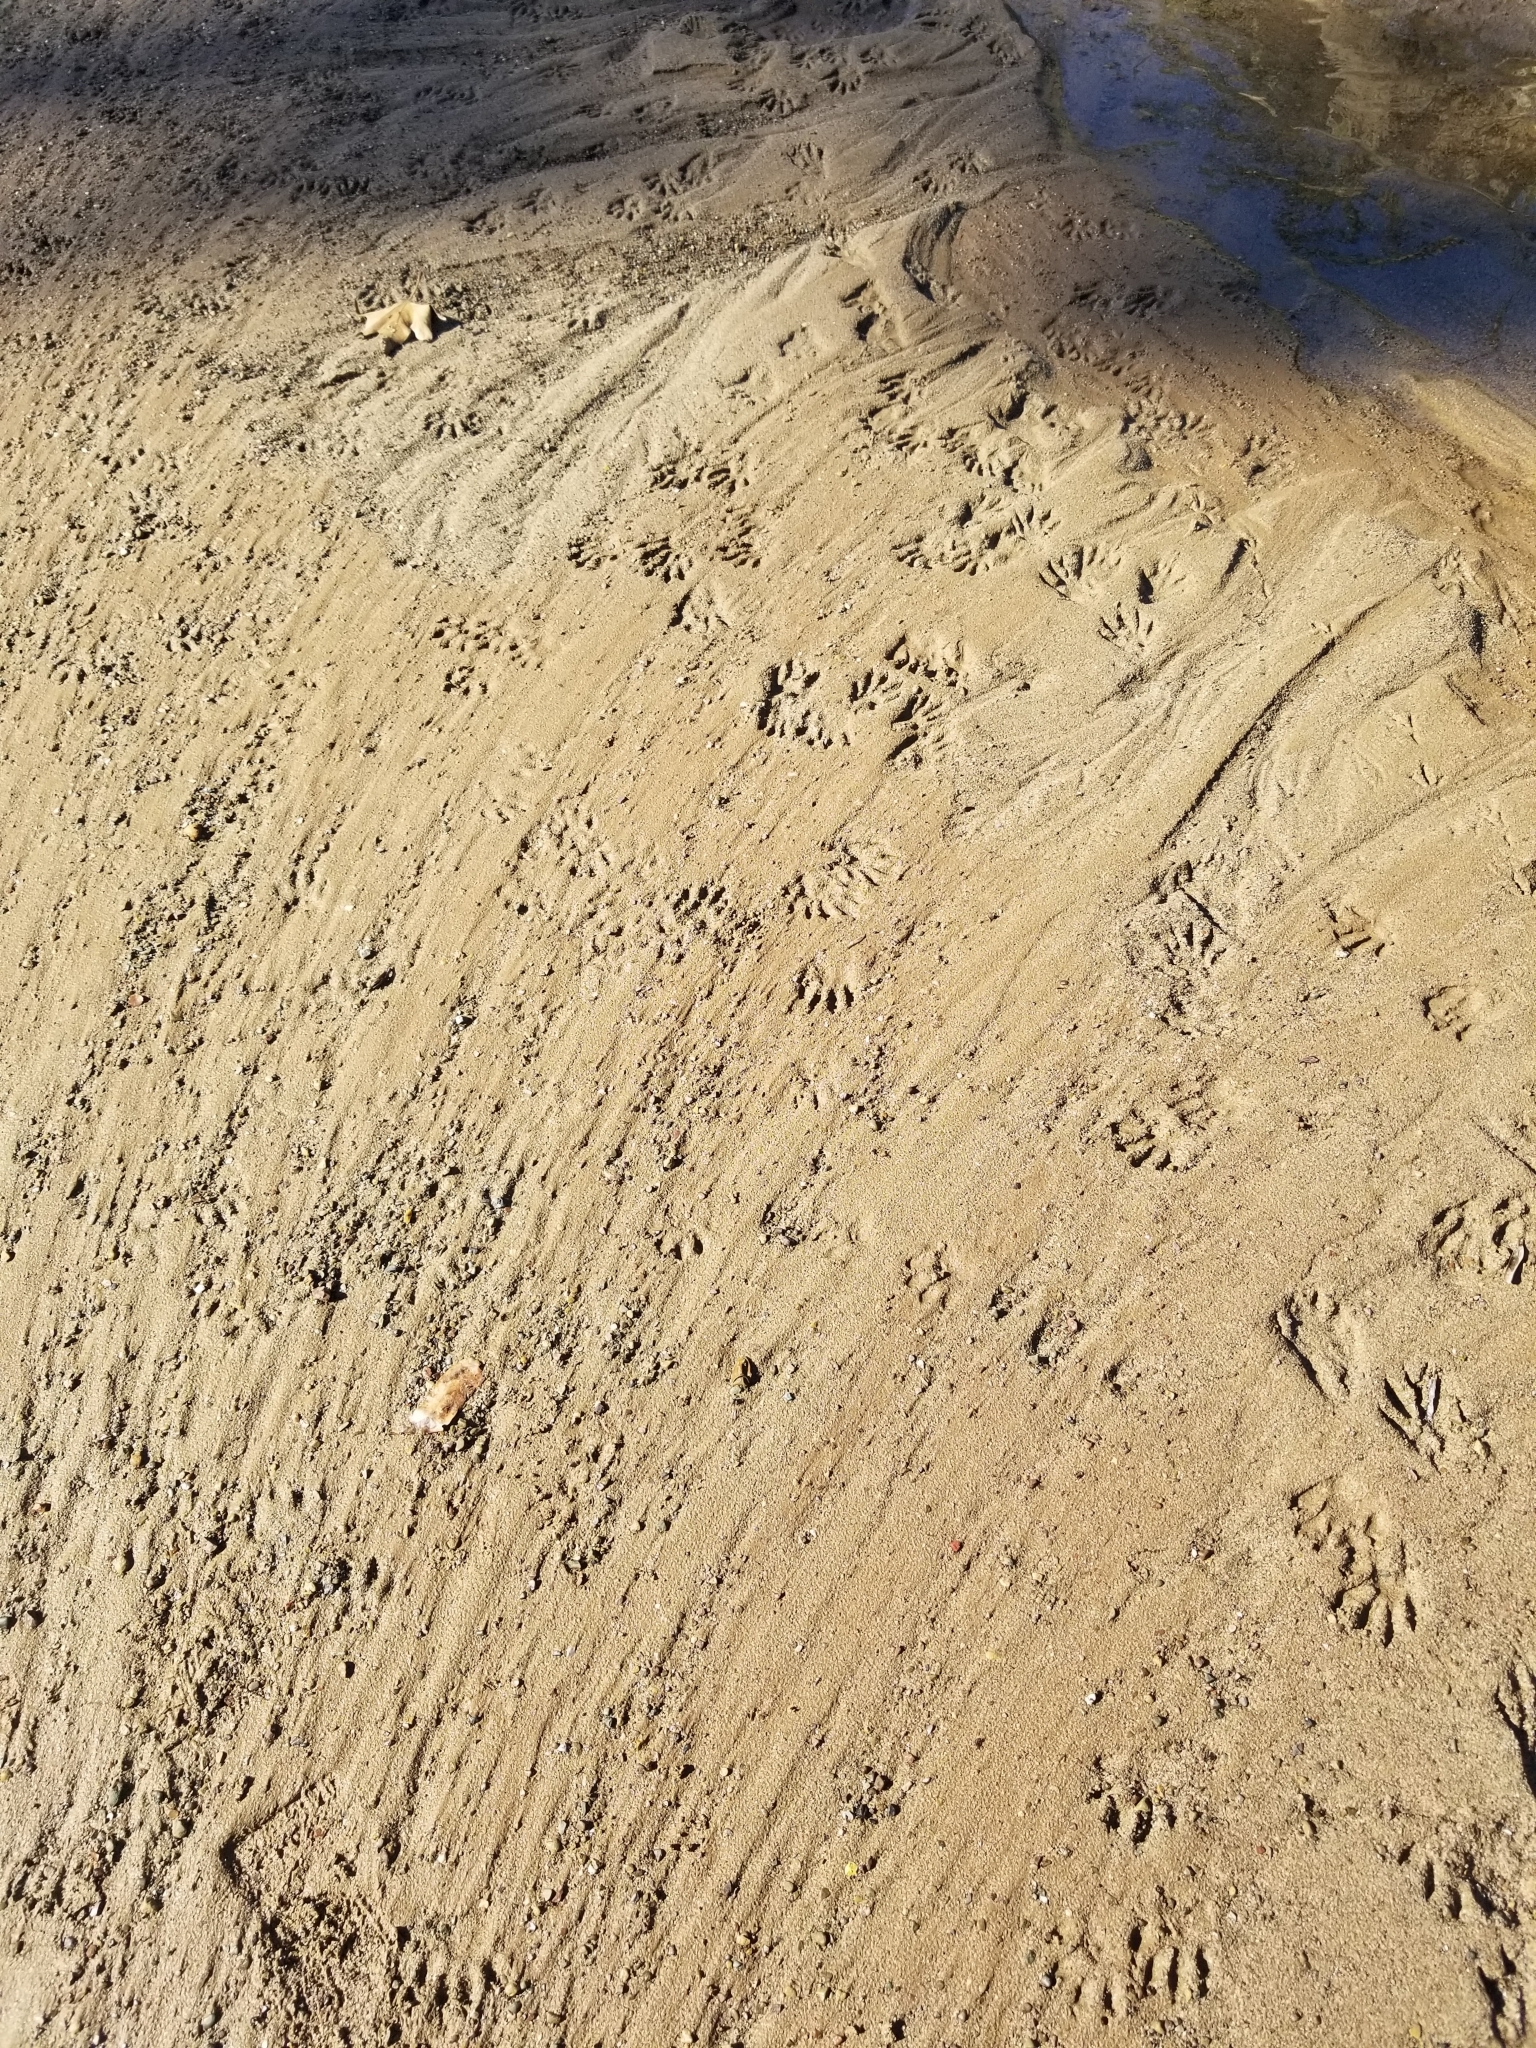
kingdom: Animalia
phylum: Chordata
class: Mammalia
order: Carnivora
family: Procyonidae
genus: Procyon
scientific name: Procyon lotor
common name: Raccoon
